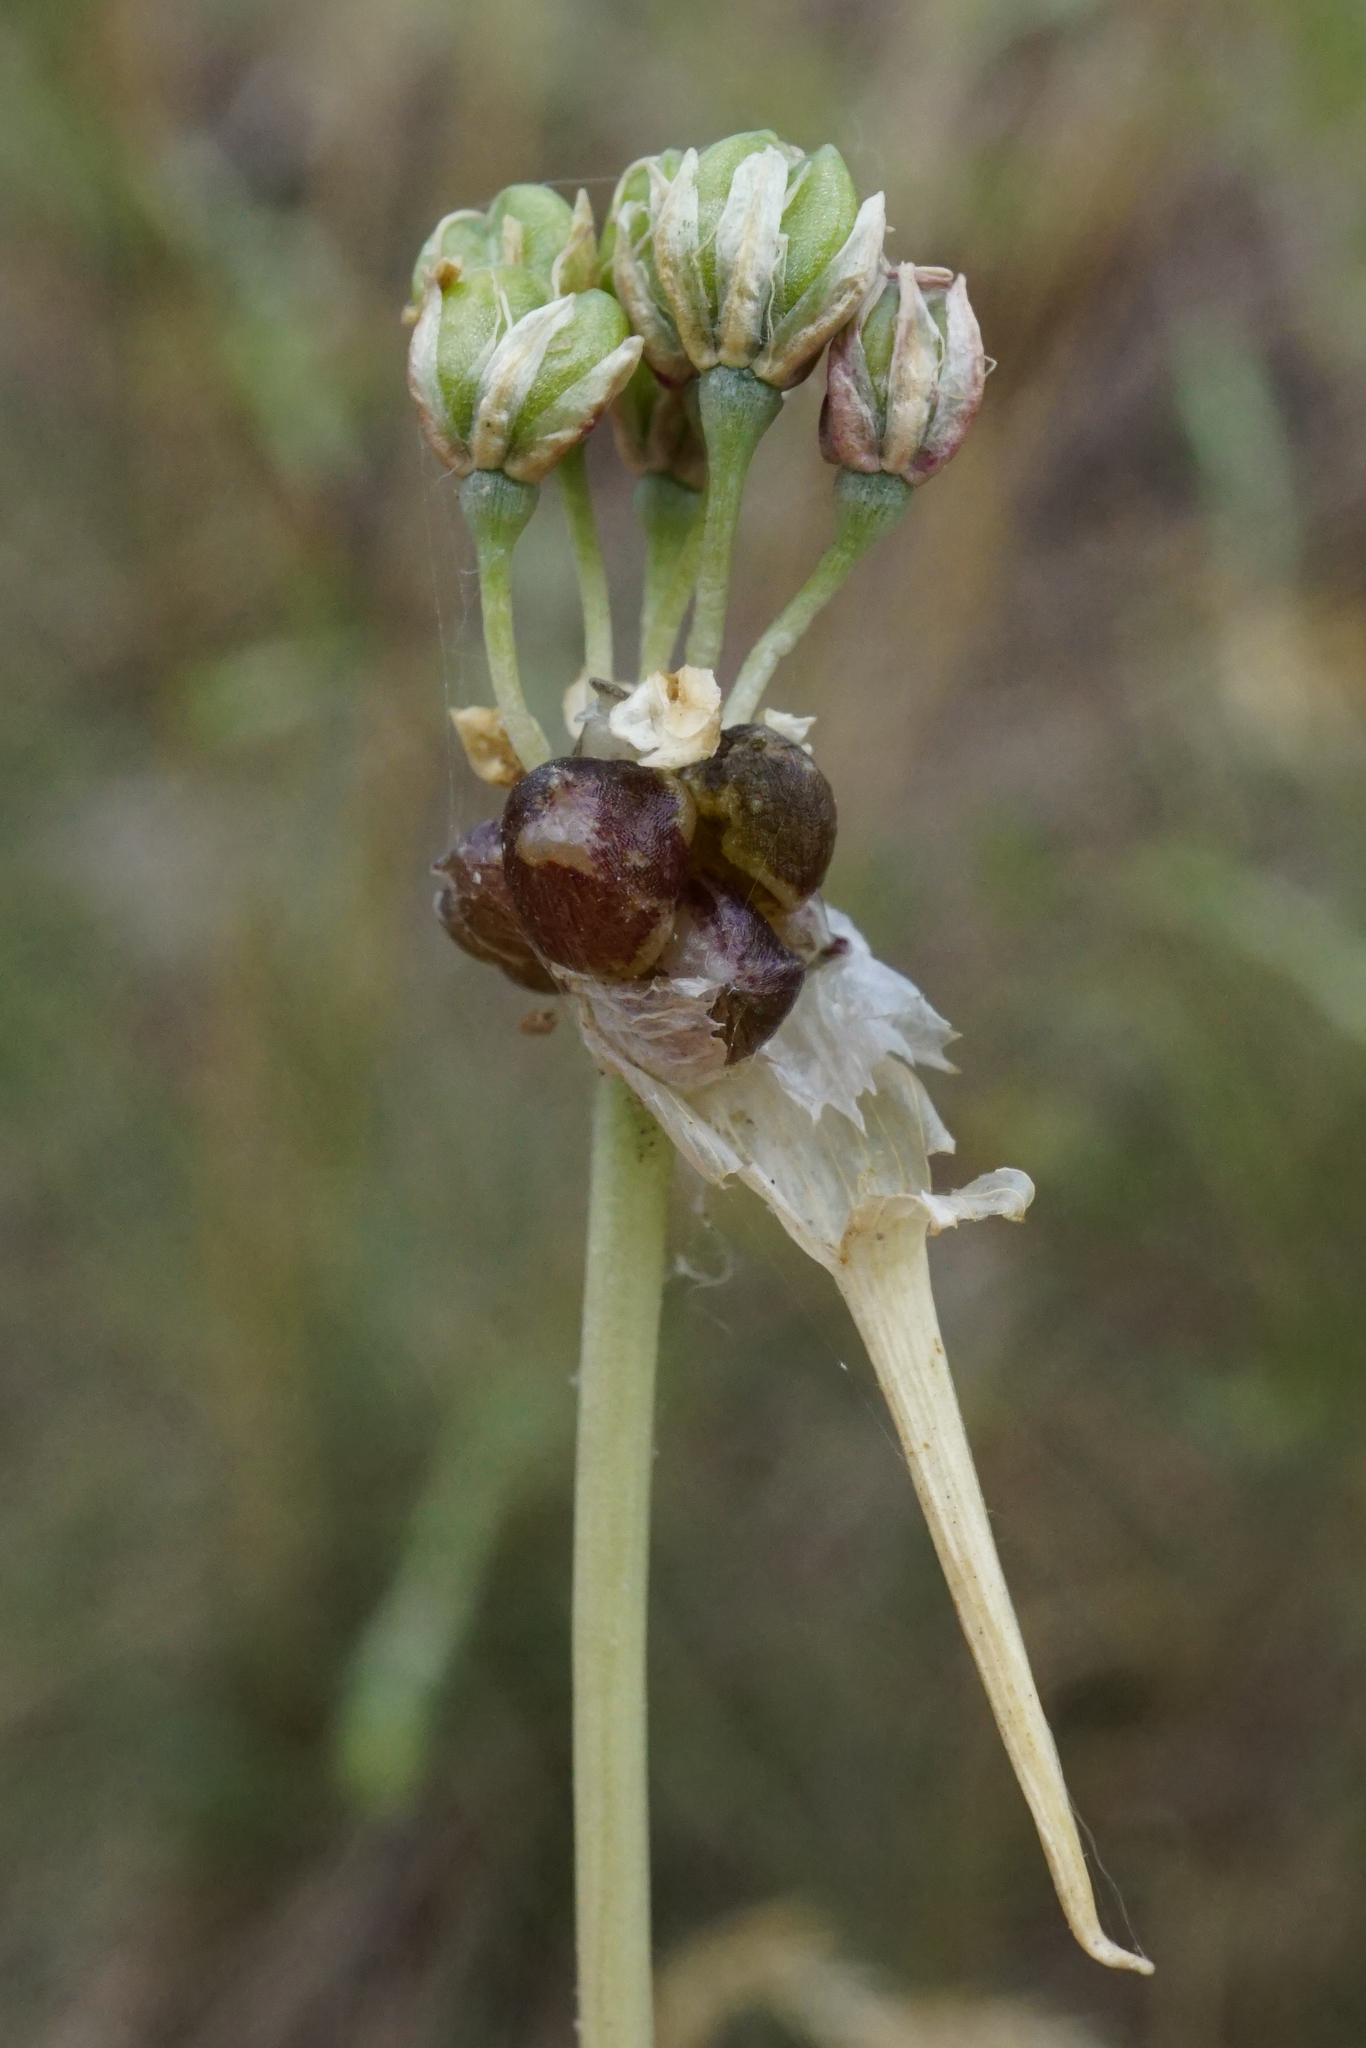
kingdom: Plantae
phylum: Tracheophyta
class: Liliopsida
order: Asparagales
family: Amaryllidaceae
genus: Allium
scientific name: Allium vineale
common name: Crow garlic
